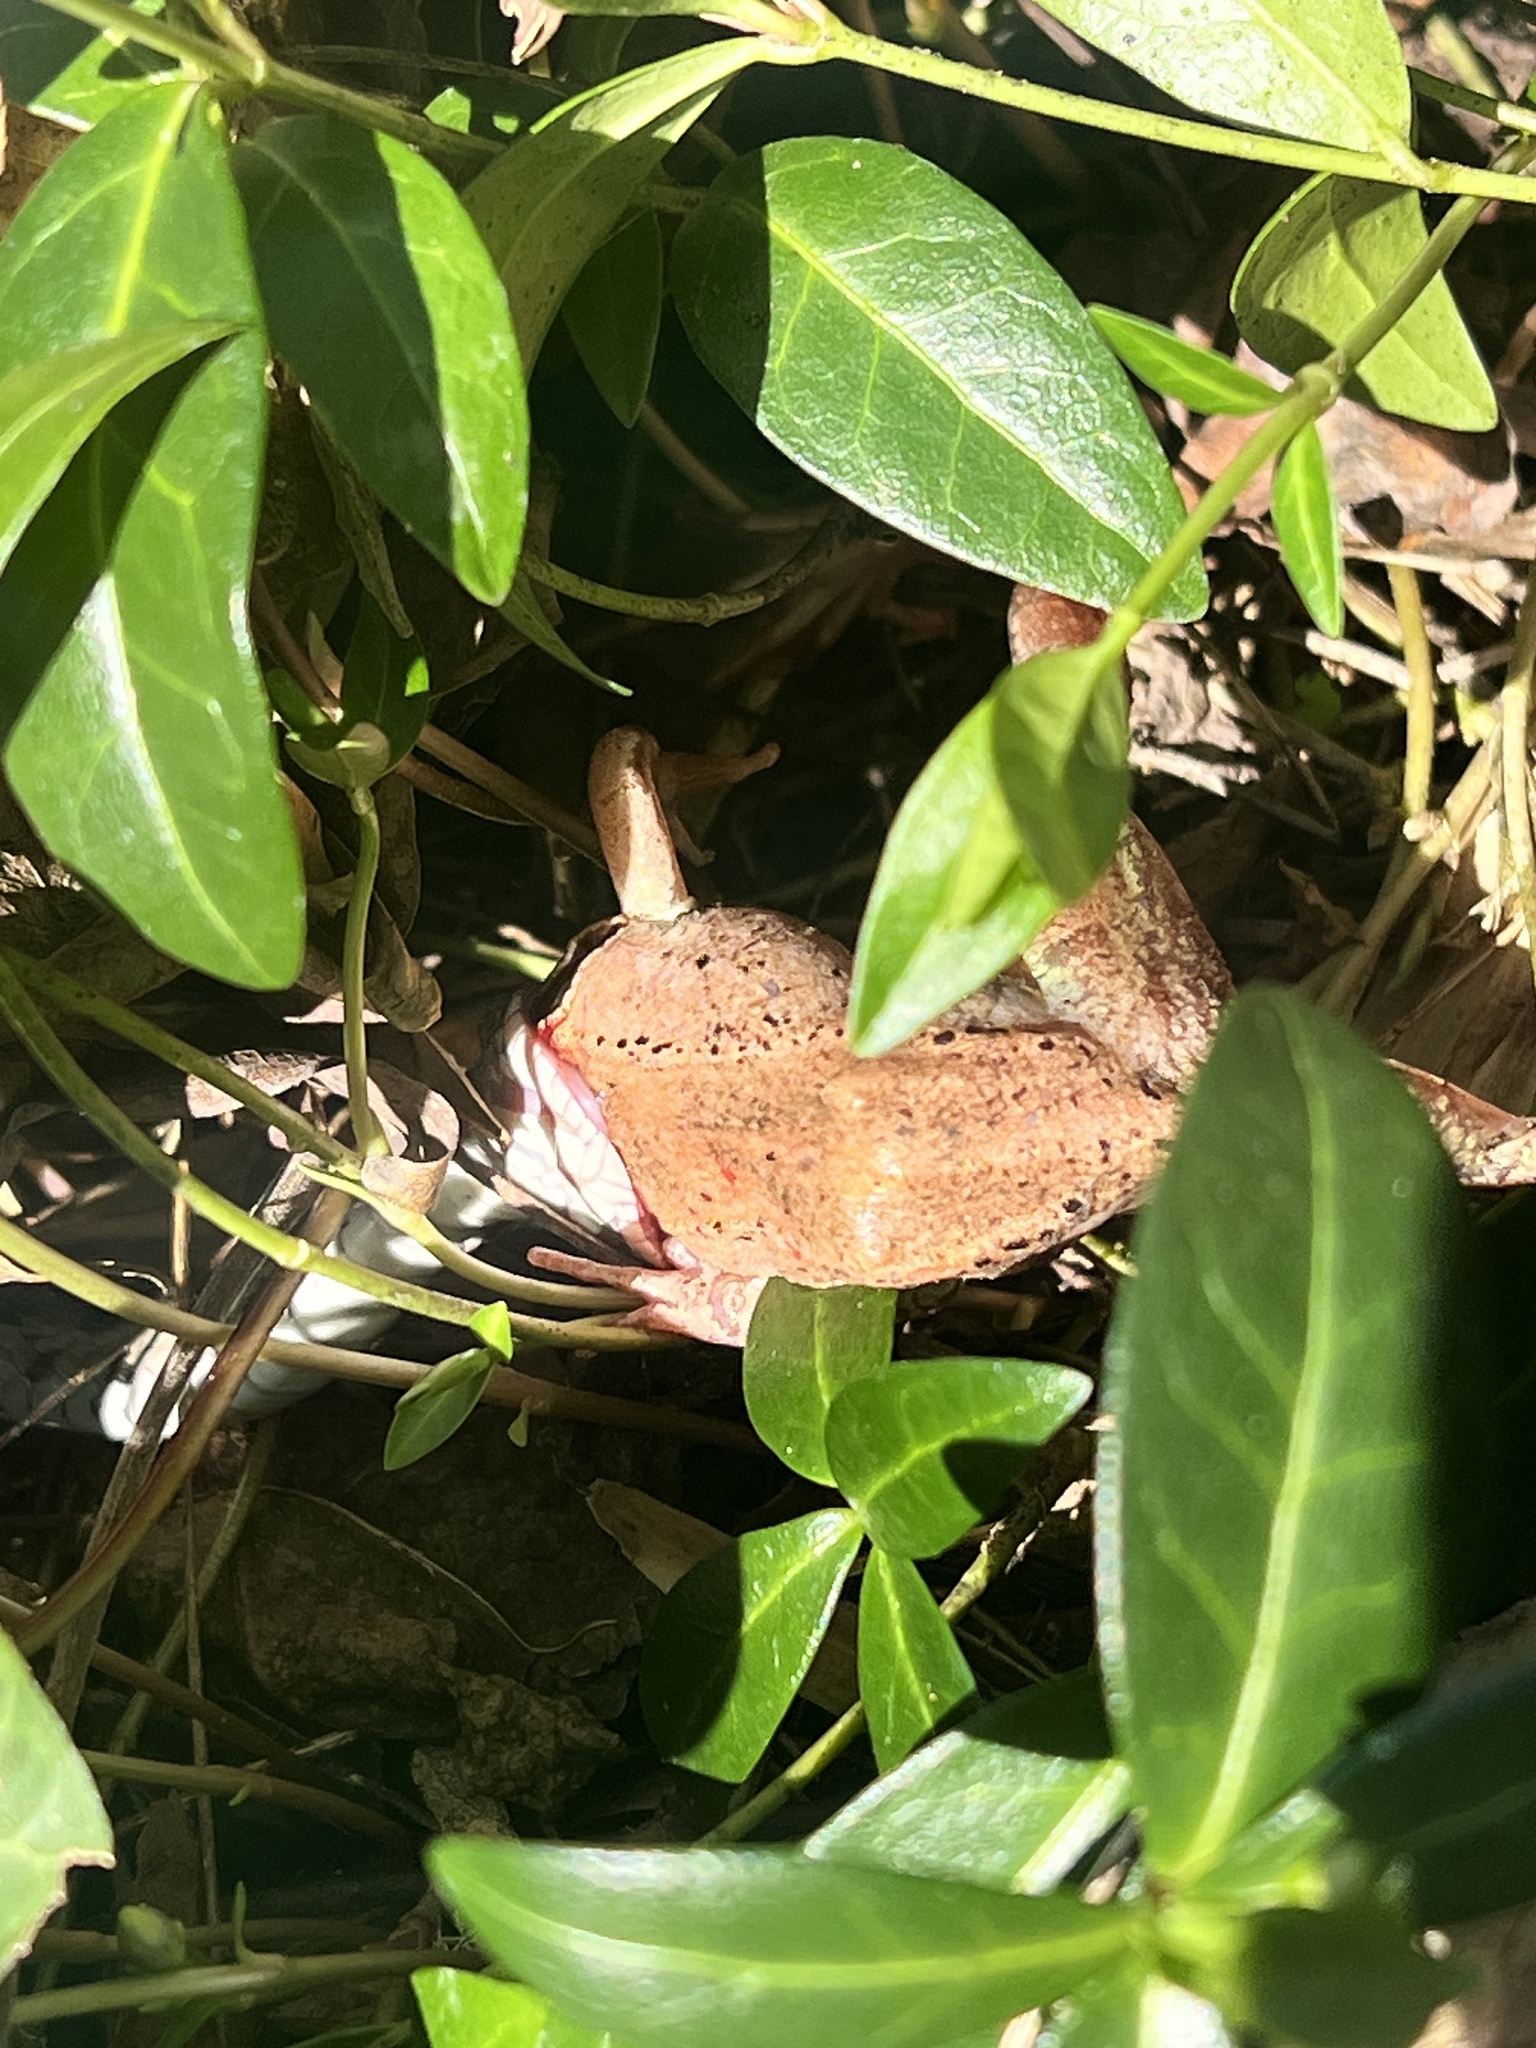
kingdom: Animalia
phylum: Chordata
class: Squamata
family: Colubridae
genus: Thamnophis
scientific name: Thamnophis sirtalis
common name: Common garter snake
